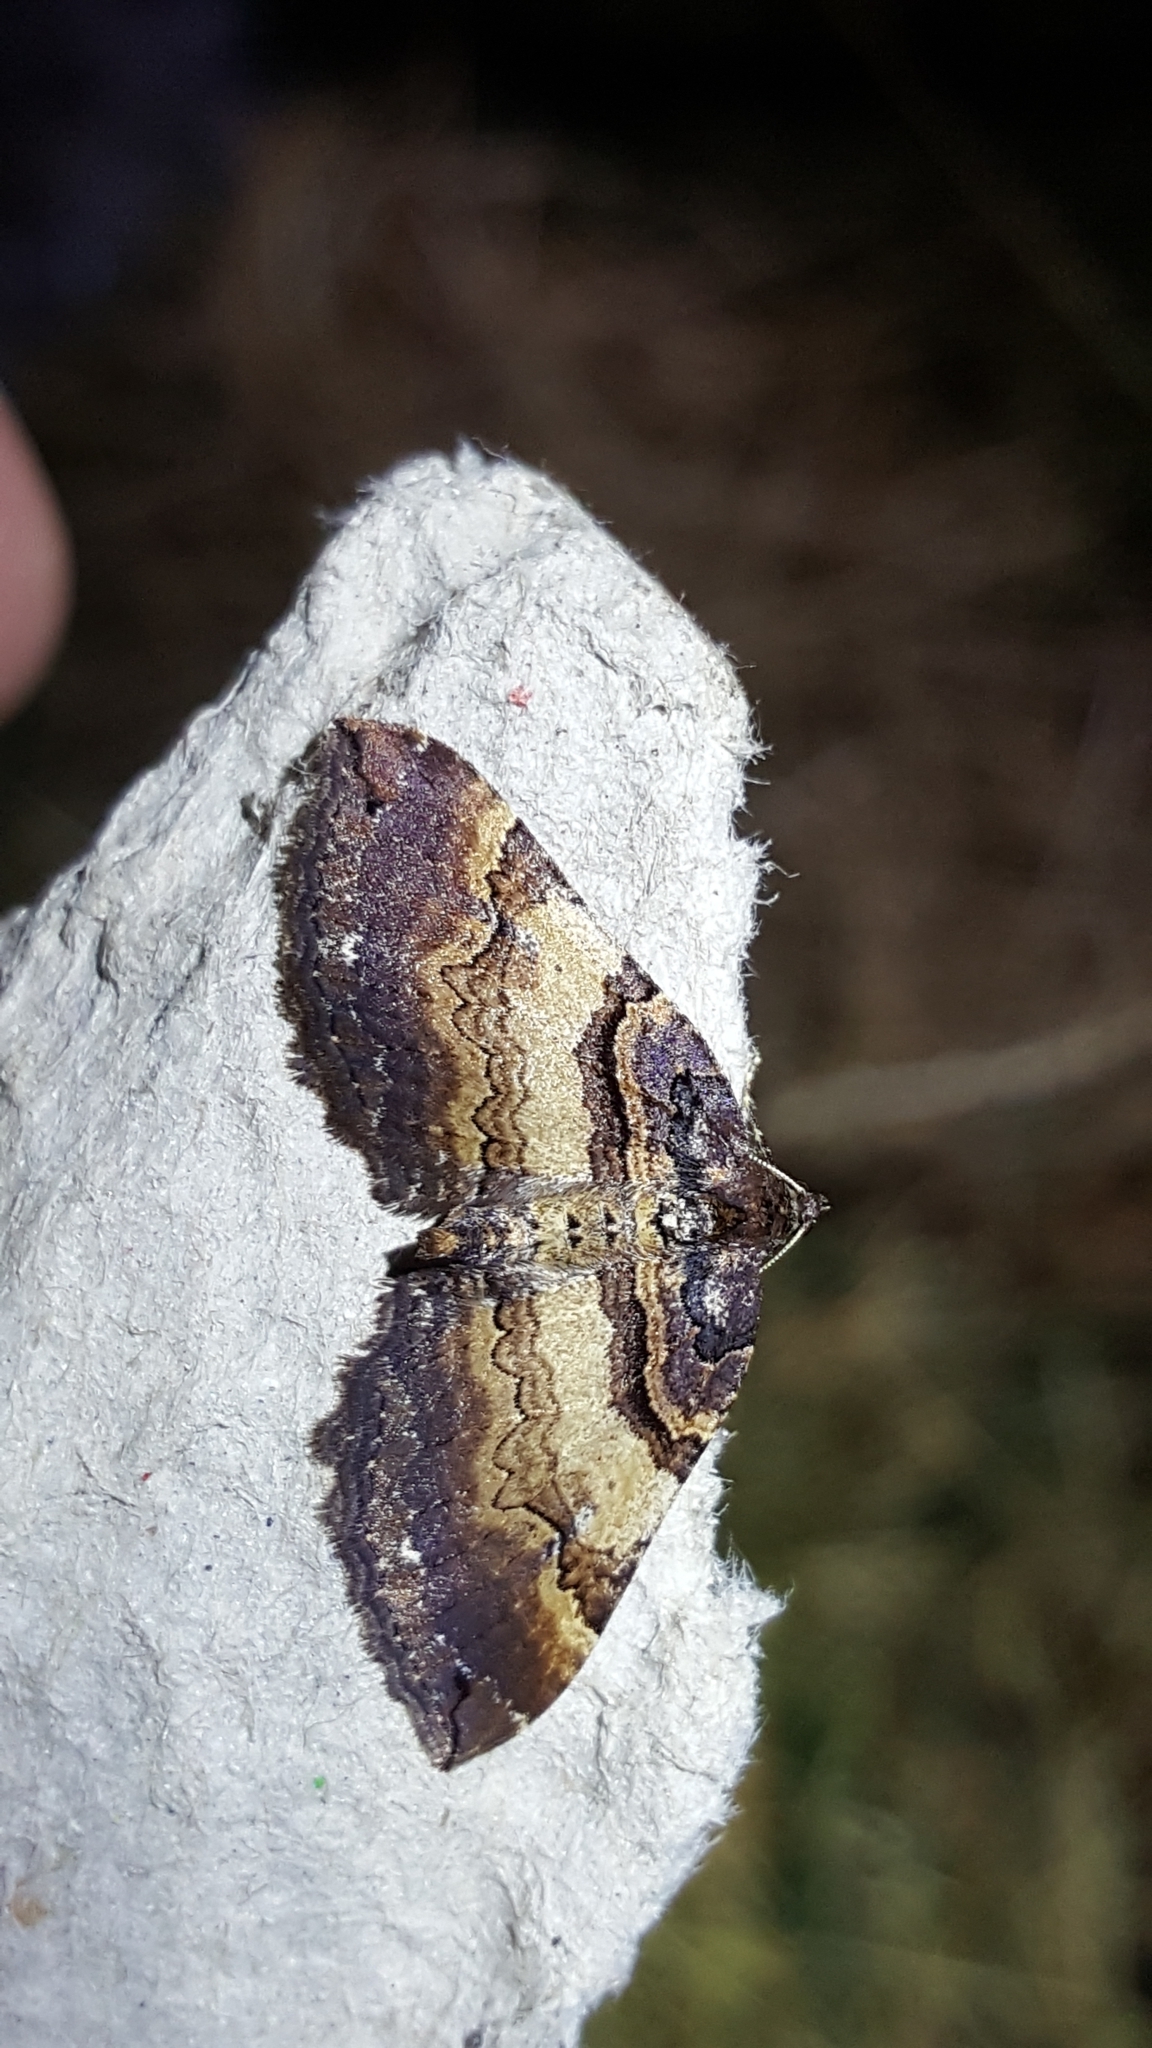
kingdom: Animalia
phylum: Arthropoda
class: Insecta
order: Lepidoptera
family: Geometridae
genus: Anticlea
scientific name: Anticlea badiata
